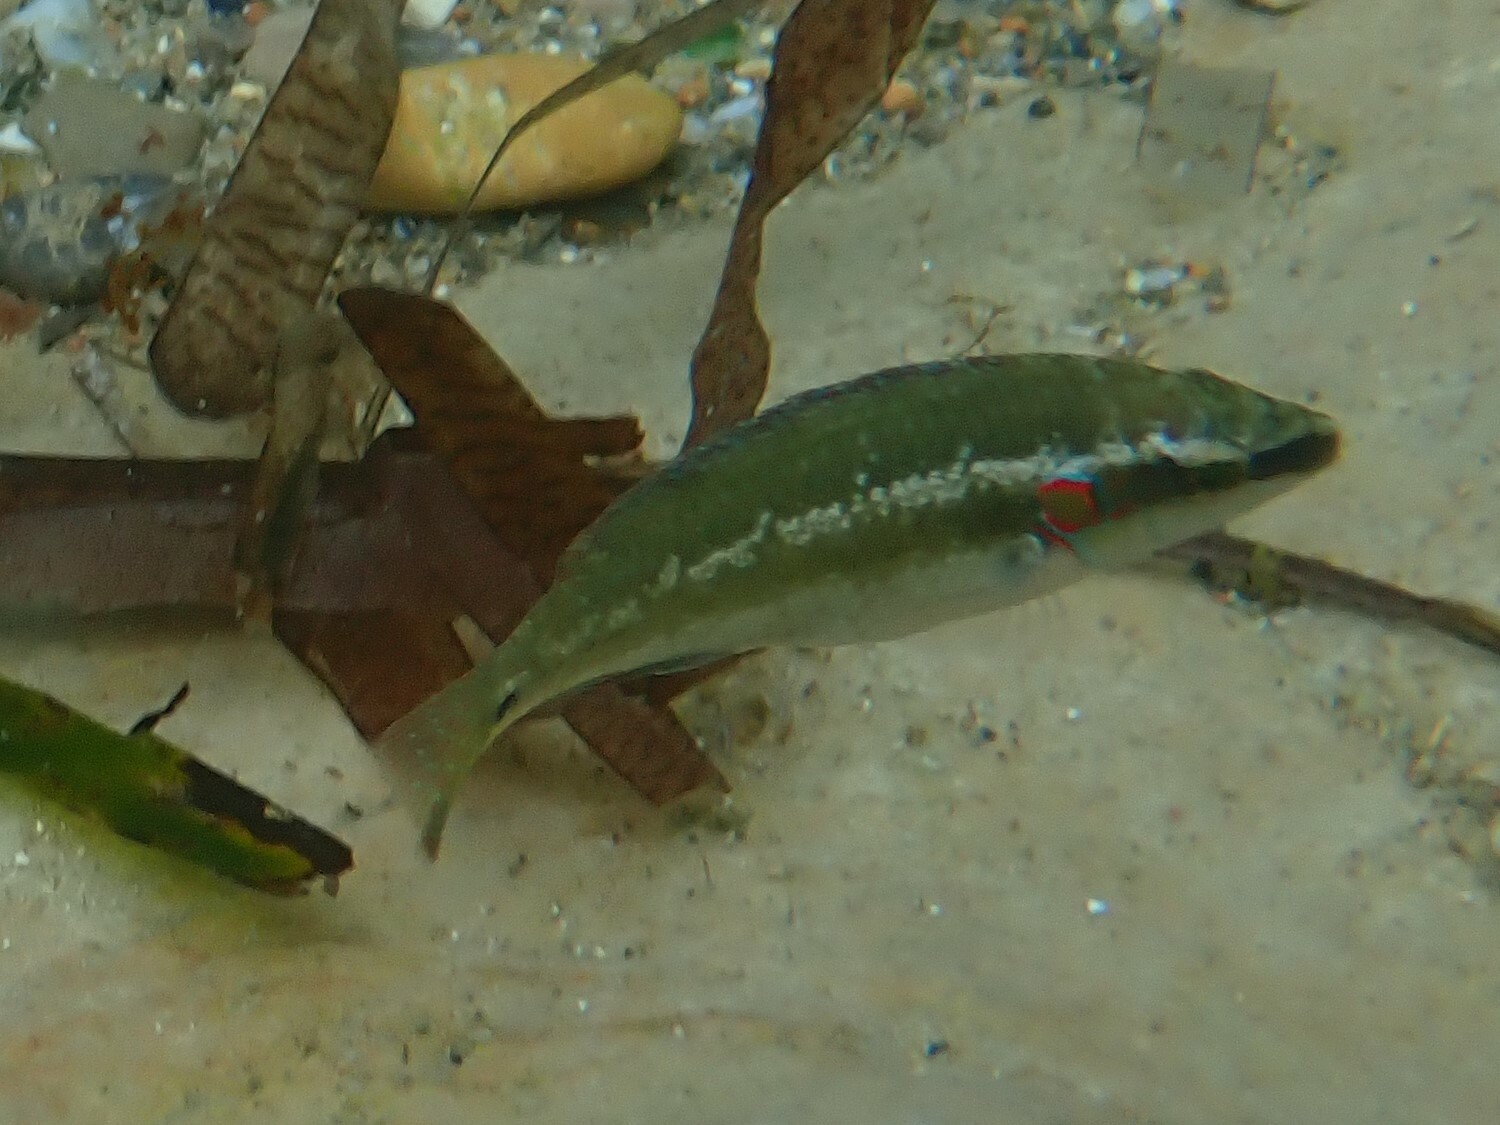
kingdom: Animalia
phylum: Chordata
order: Perciformes
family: Labridae
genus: Symphodus
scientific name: Symphodus ocellatus
